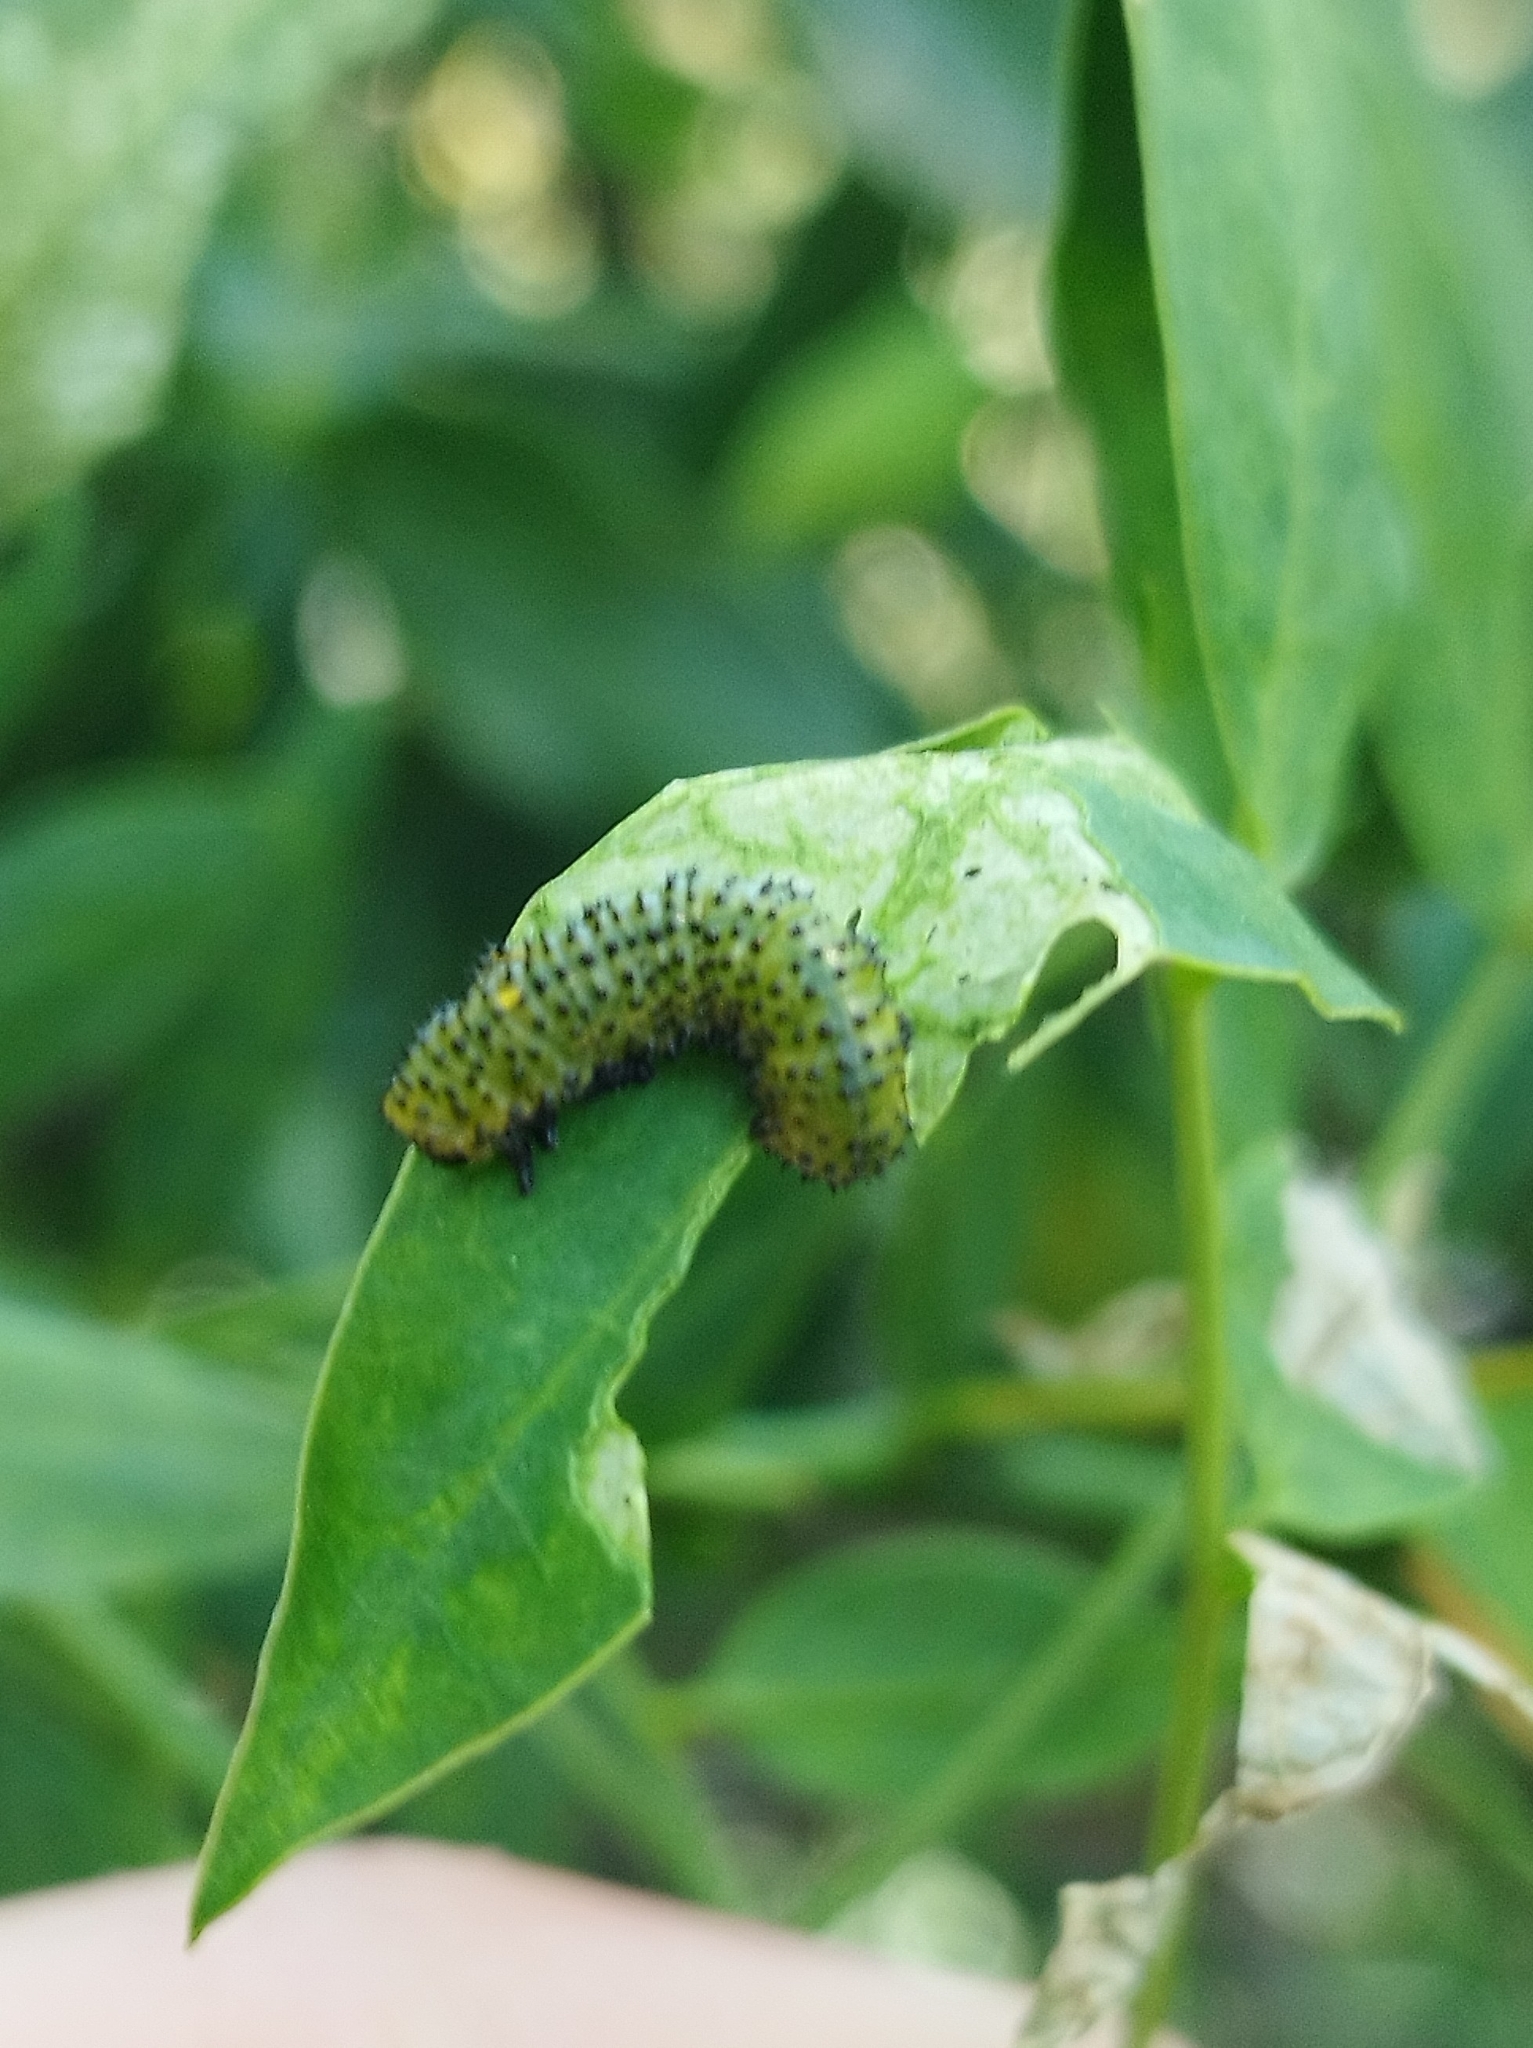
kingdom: Animalia
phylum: Arthropoda
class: Insecta
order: Hymenoptera
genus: Adurgoa
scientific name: Adurgoa
